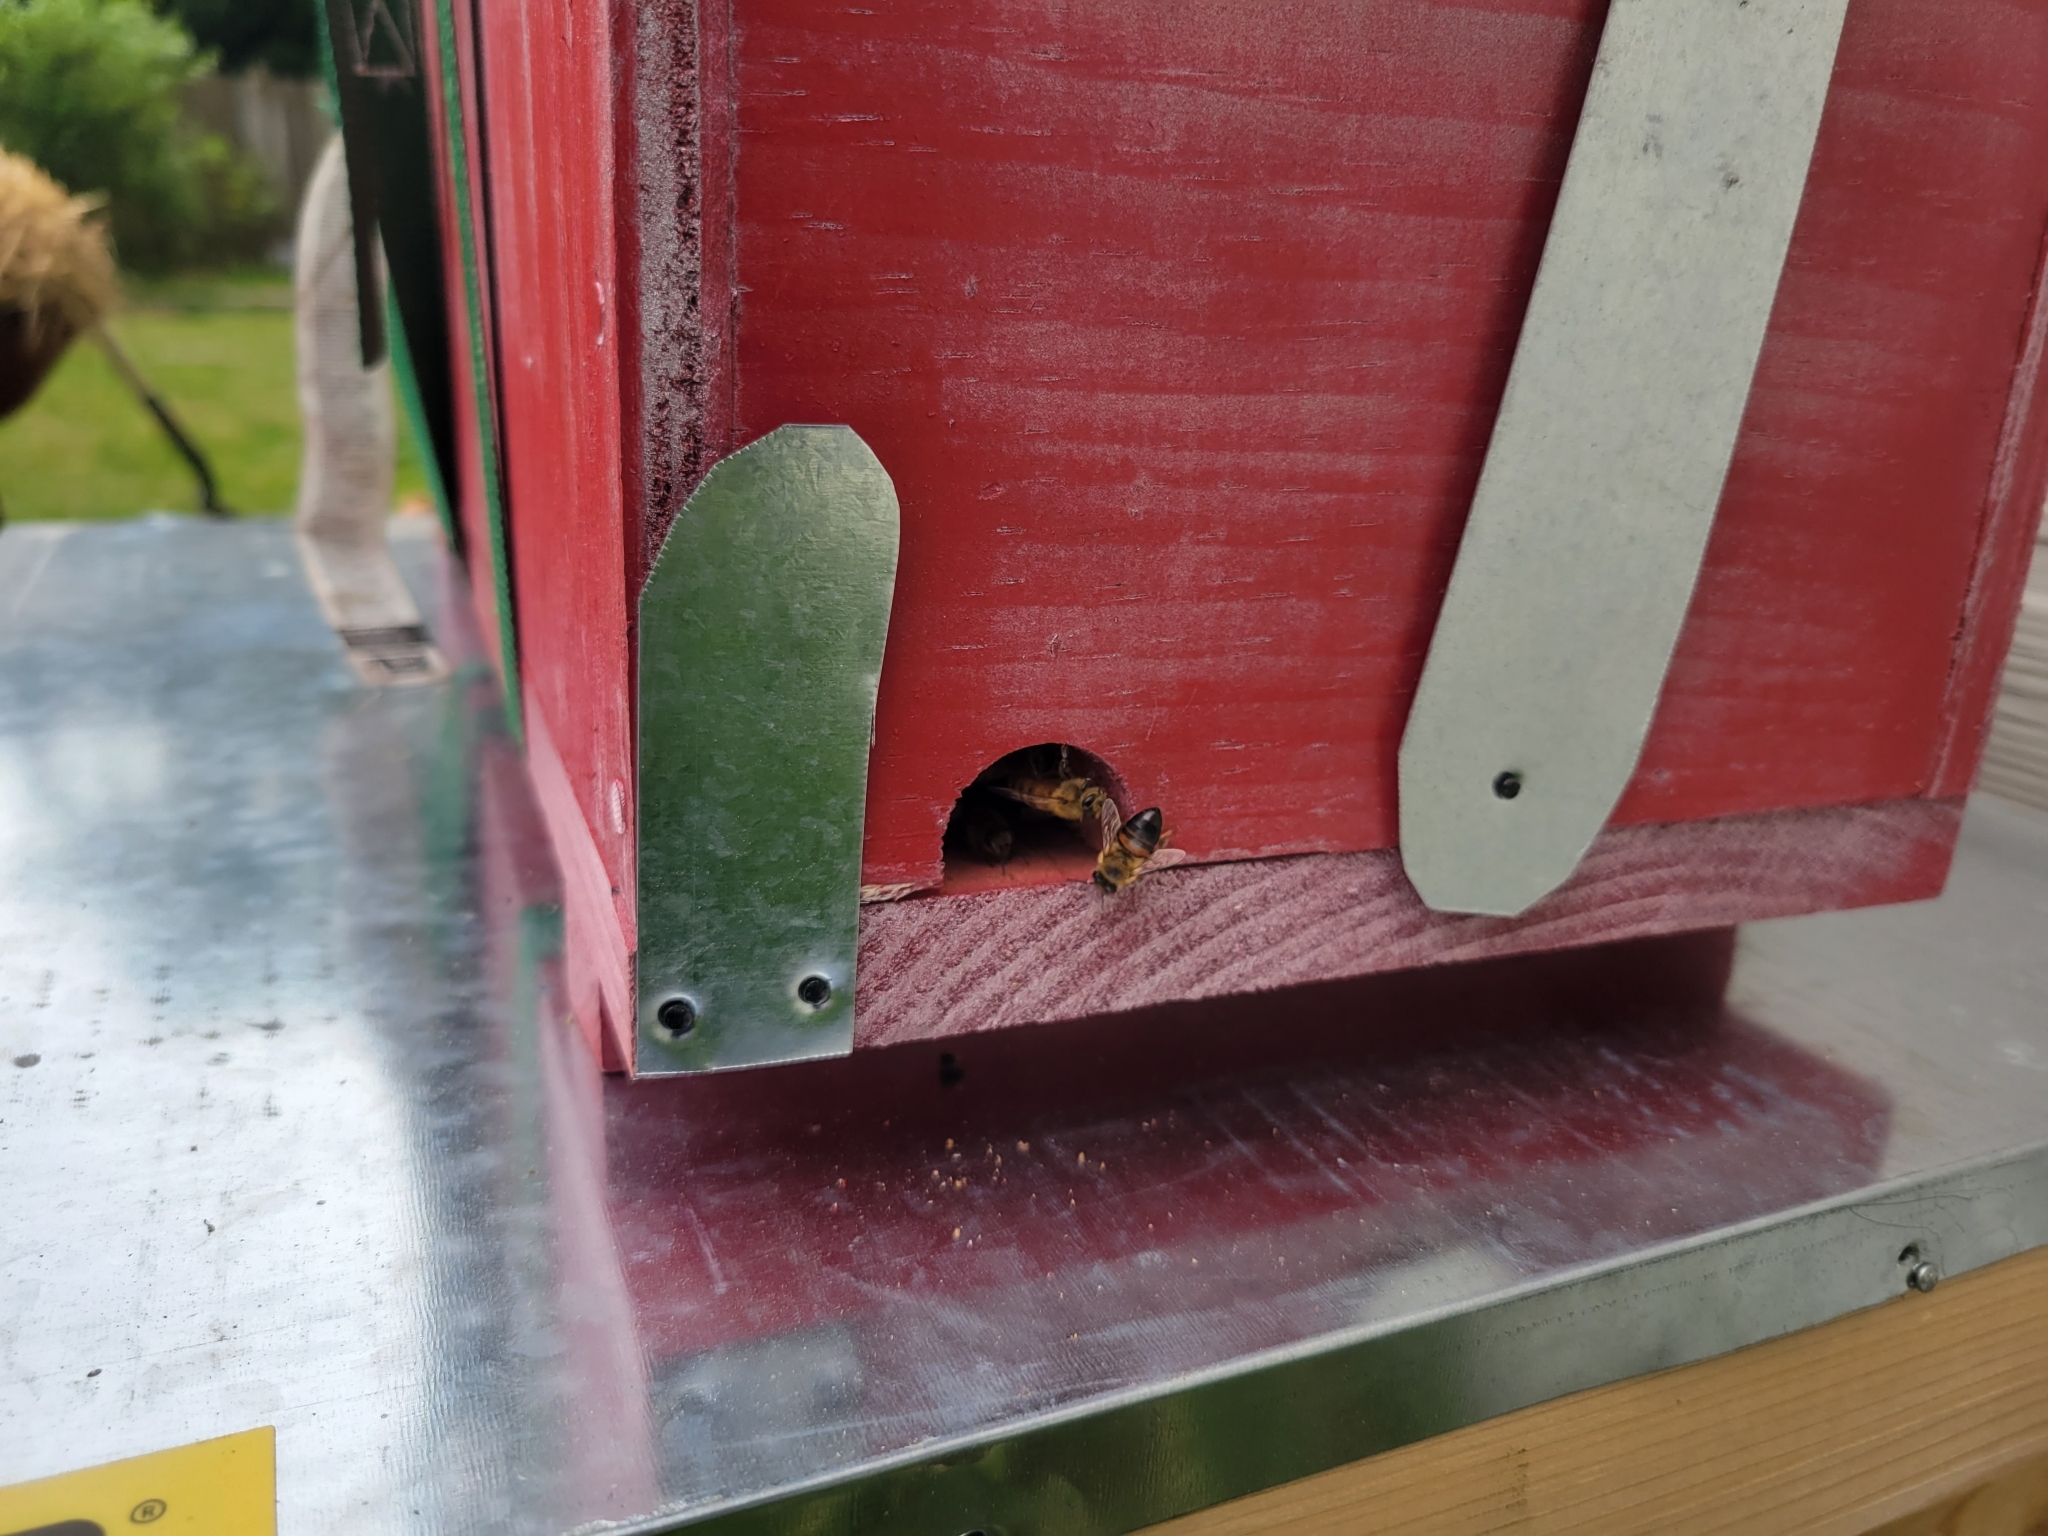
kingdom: Animalia
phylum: Arthropoda
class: Insecta
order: Hymenoptera
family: Apidae
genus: Apis
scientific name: Apis mellifera
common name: Honey bee
